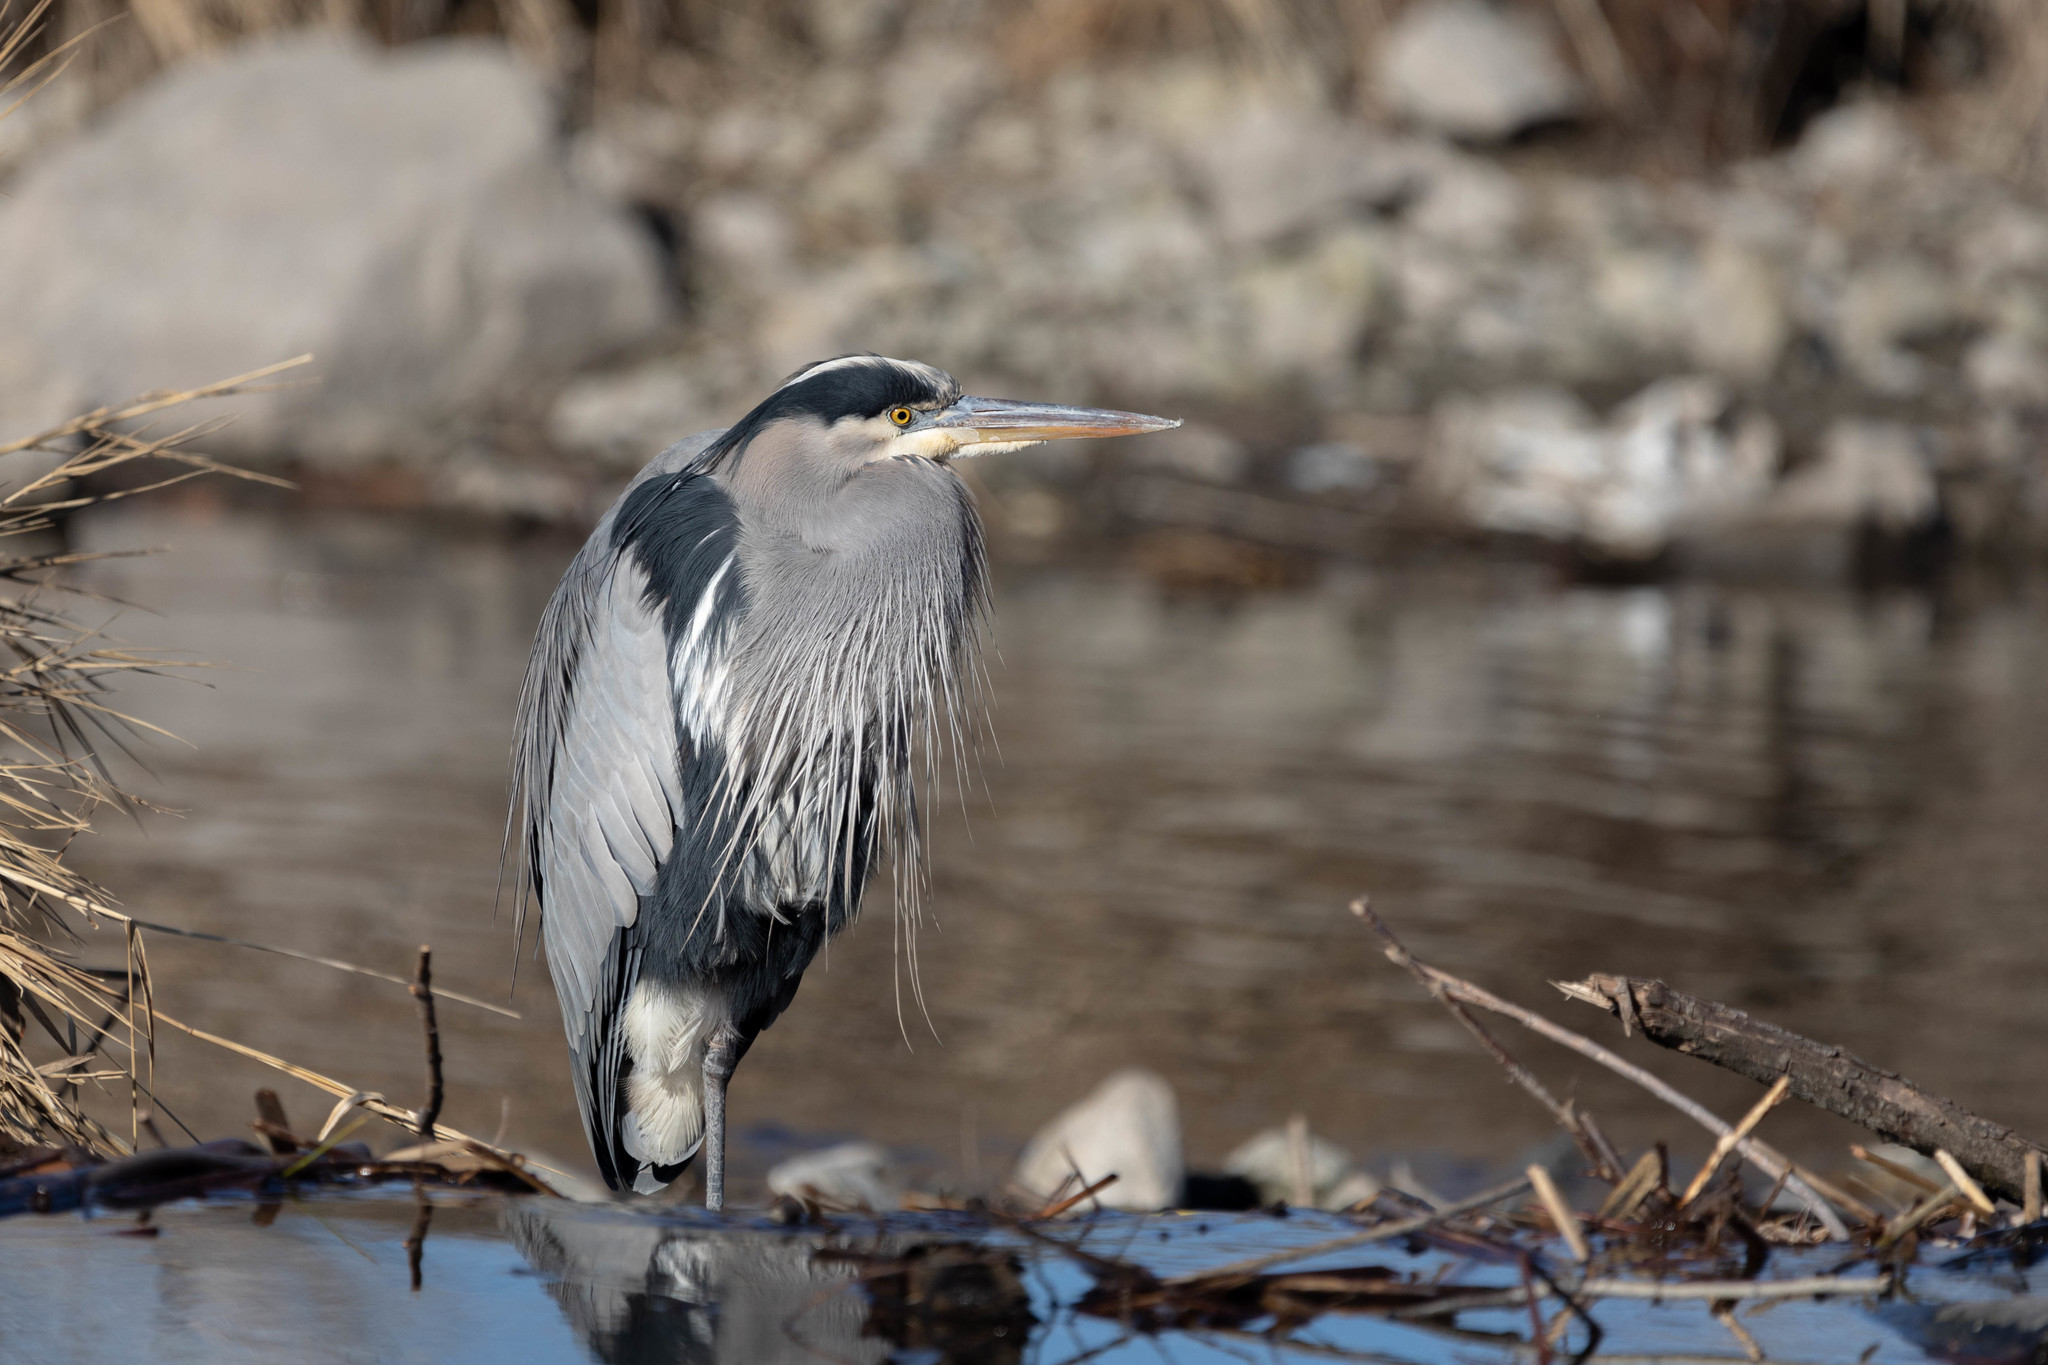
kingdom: Animalia
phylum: Chordata
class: Aves
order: Pelecaniformes
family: Ardeidae
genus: Ardea
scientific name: Ardea herodias
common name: Great blue heron
